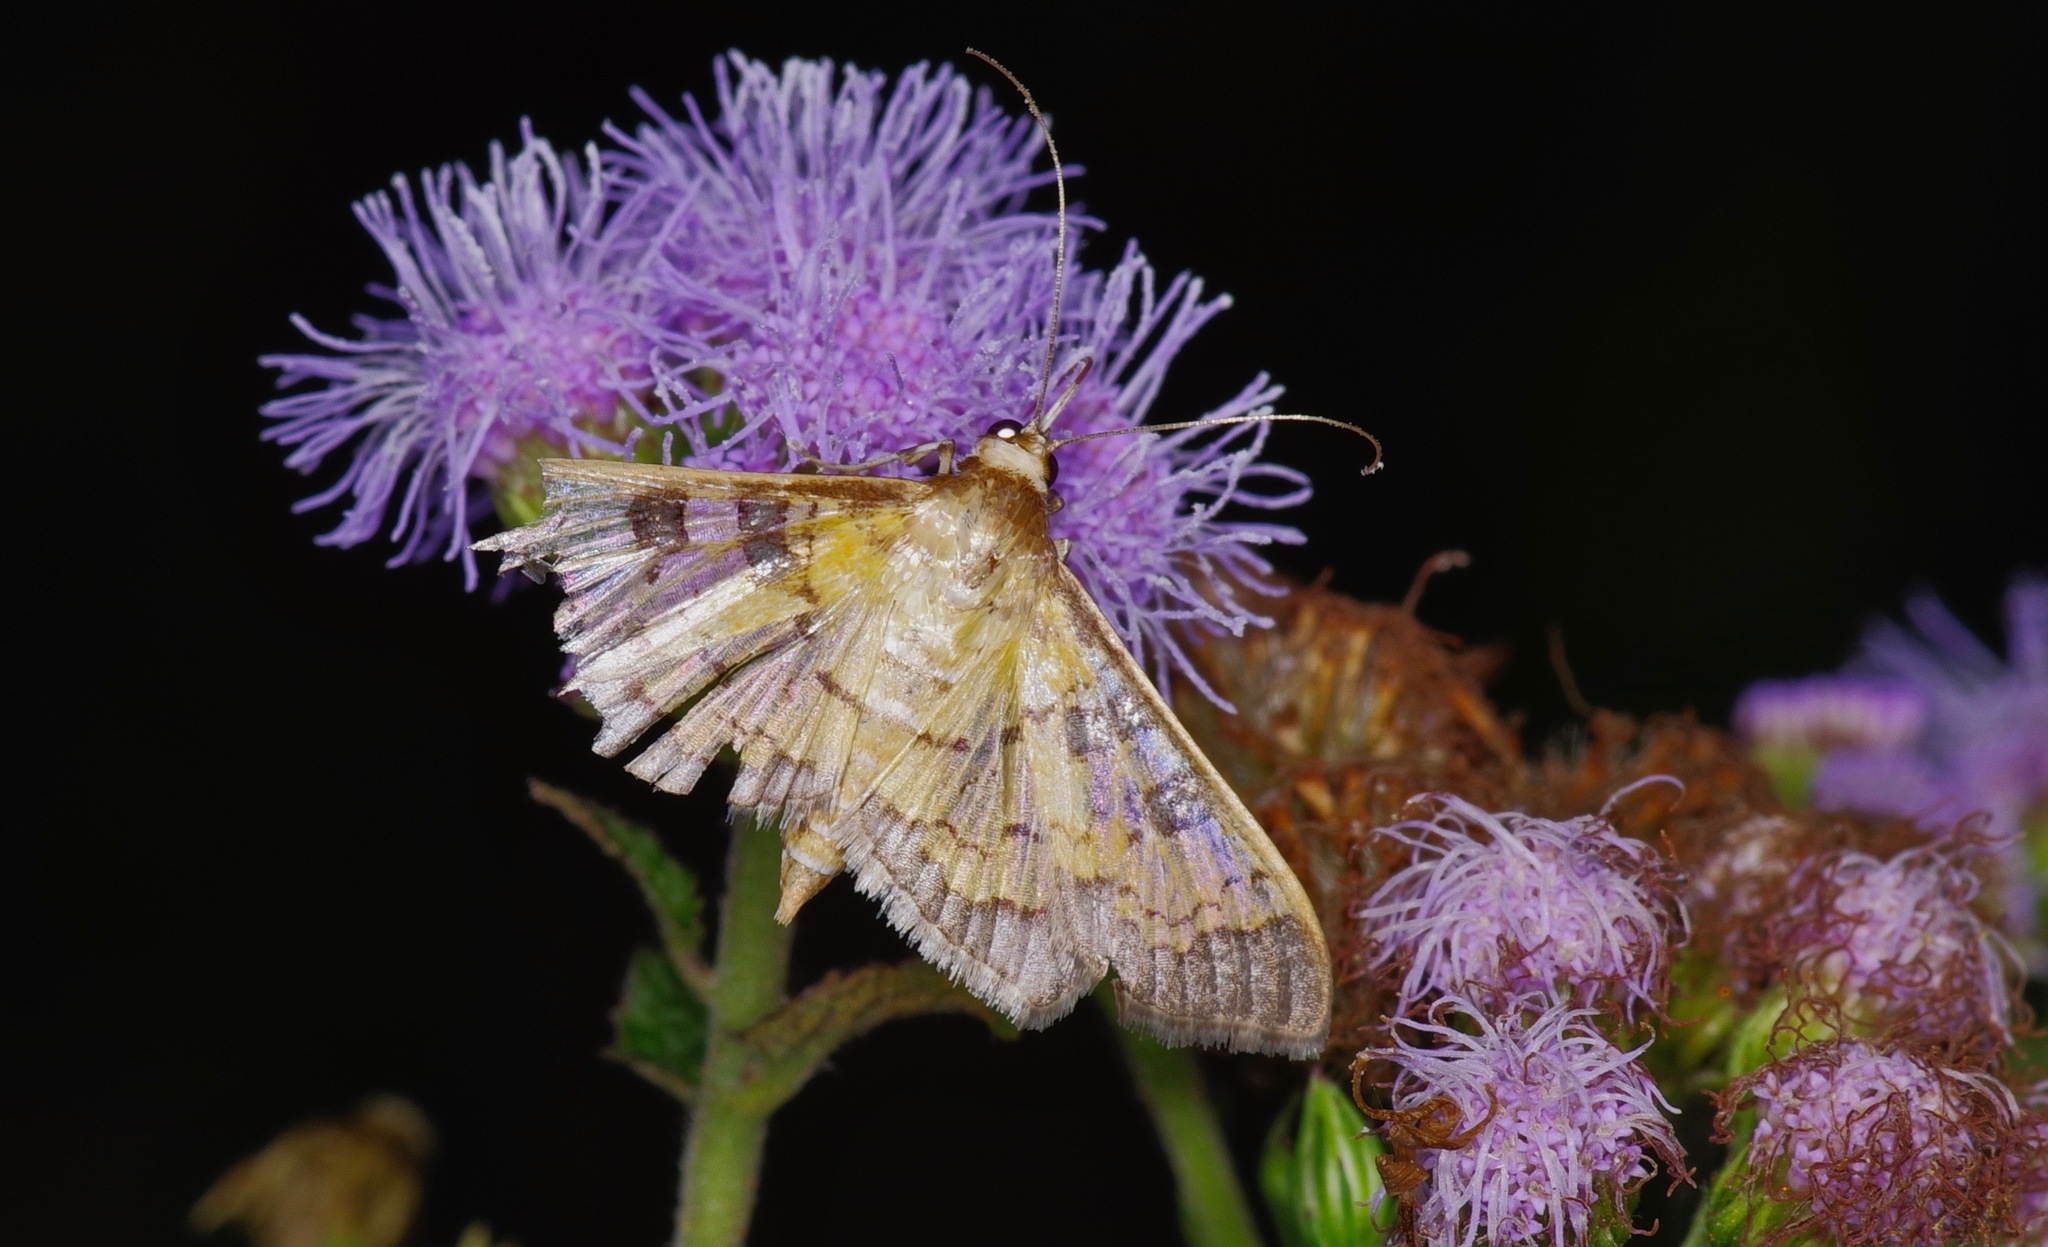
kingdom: Animalia
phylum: Arthropoda
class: Insecta
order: Lepidoptera
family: Crambidae
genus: Cryptographis
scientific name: Cryptographis elealis
